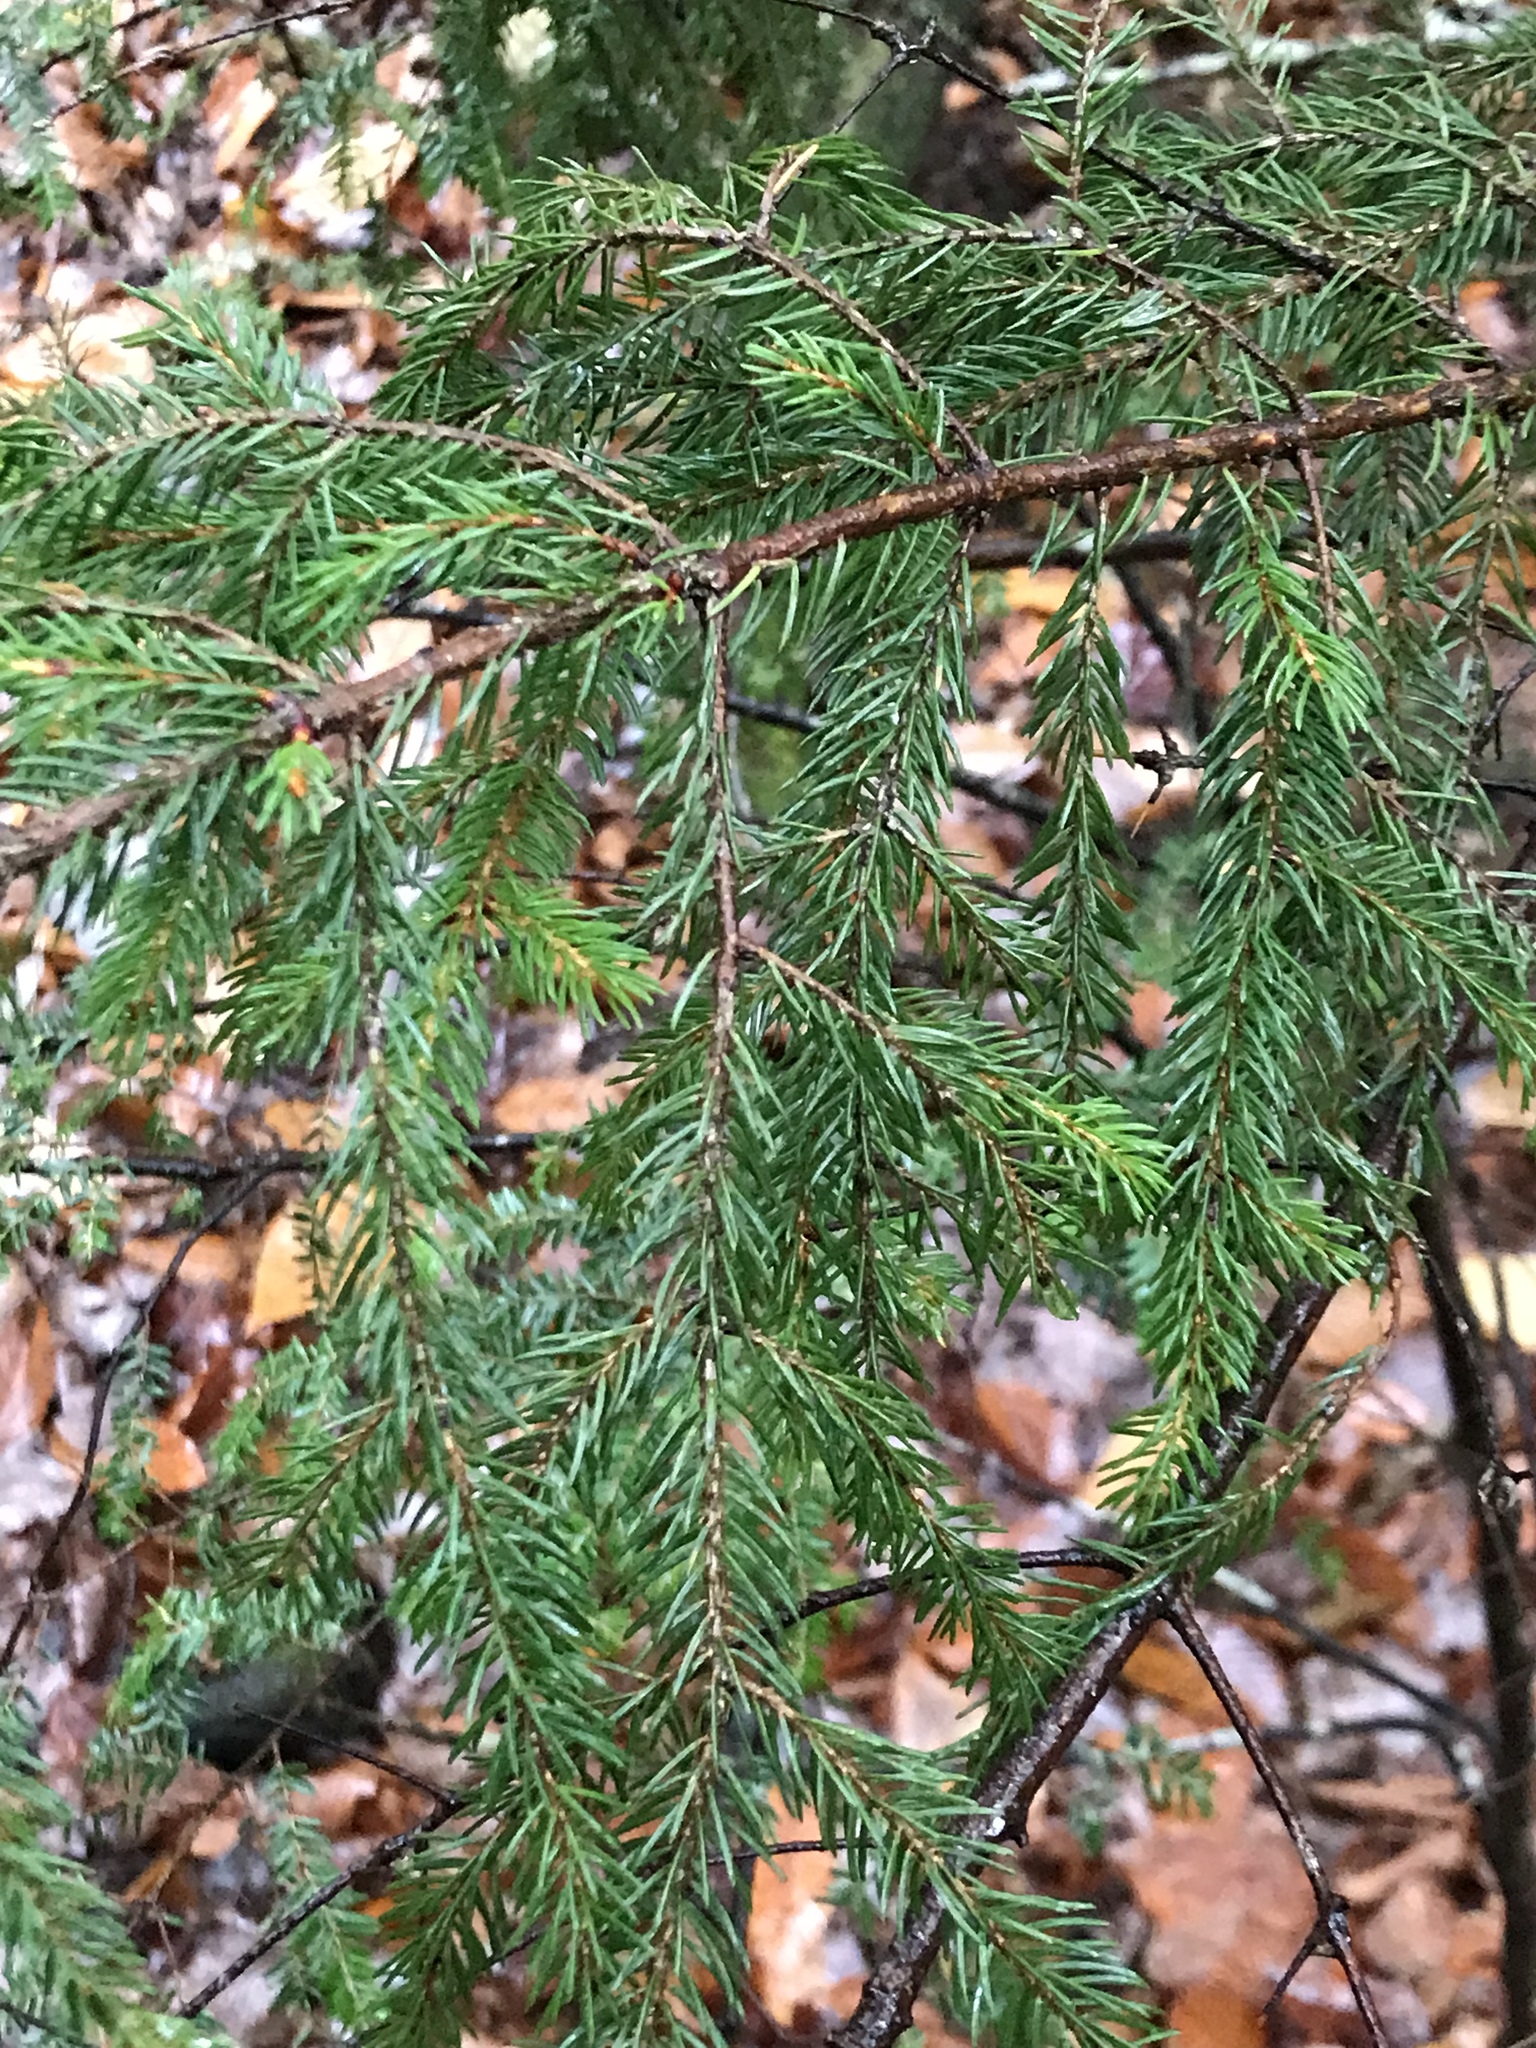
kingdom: Plantae
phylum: Tracheophyta
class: Pinopsida
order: Pinales
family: Pinaceae
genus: Picea
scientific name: Picea rubens
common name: Red spruce
